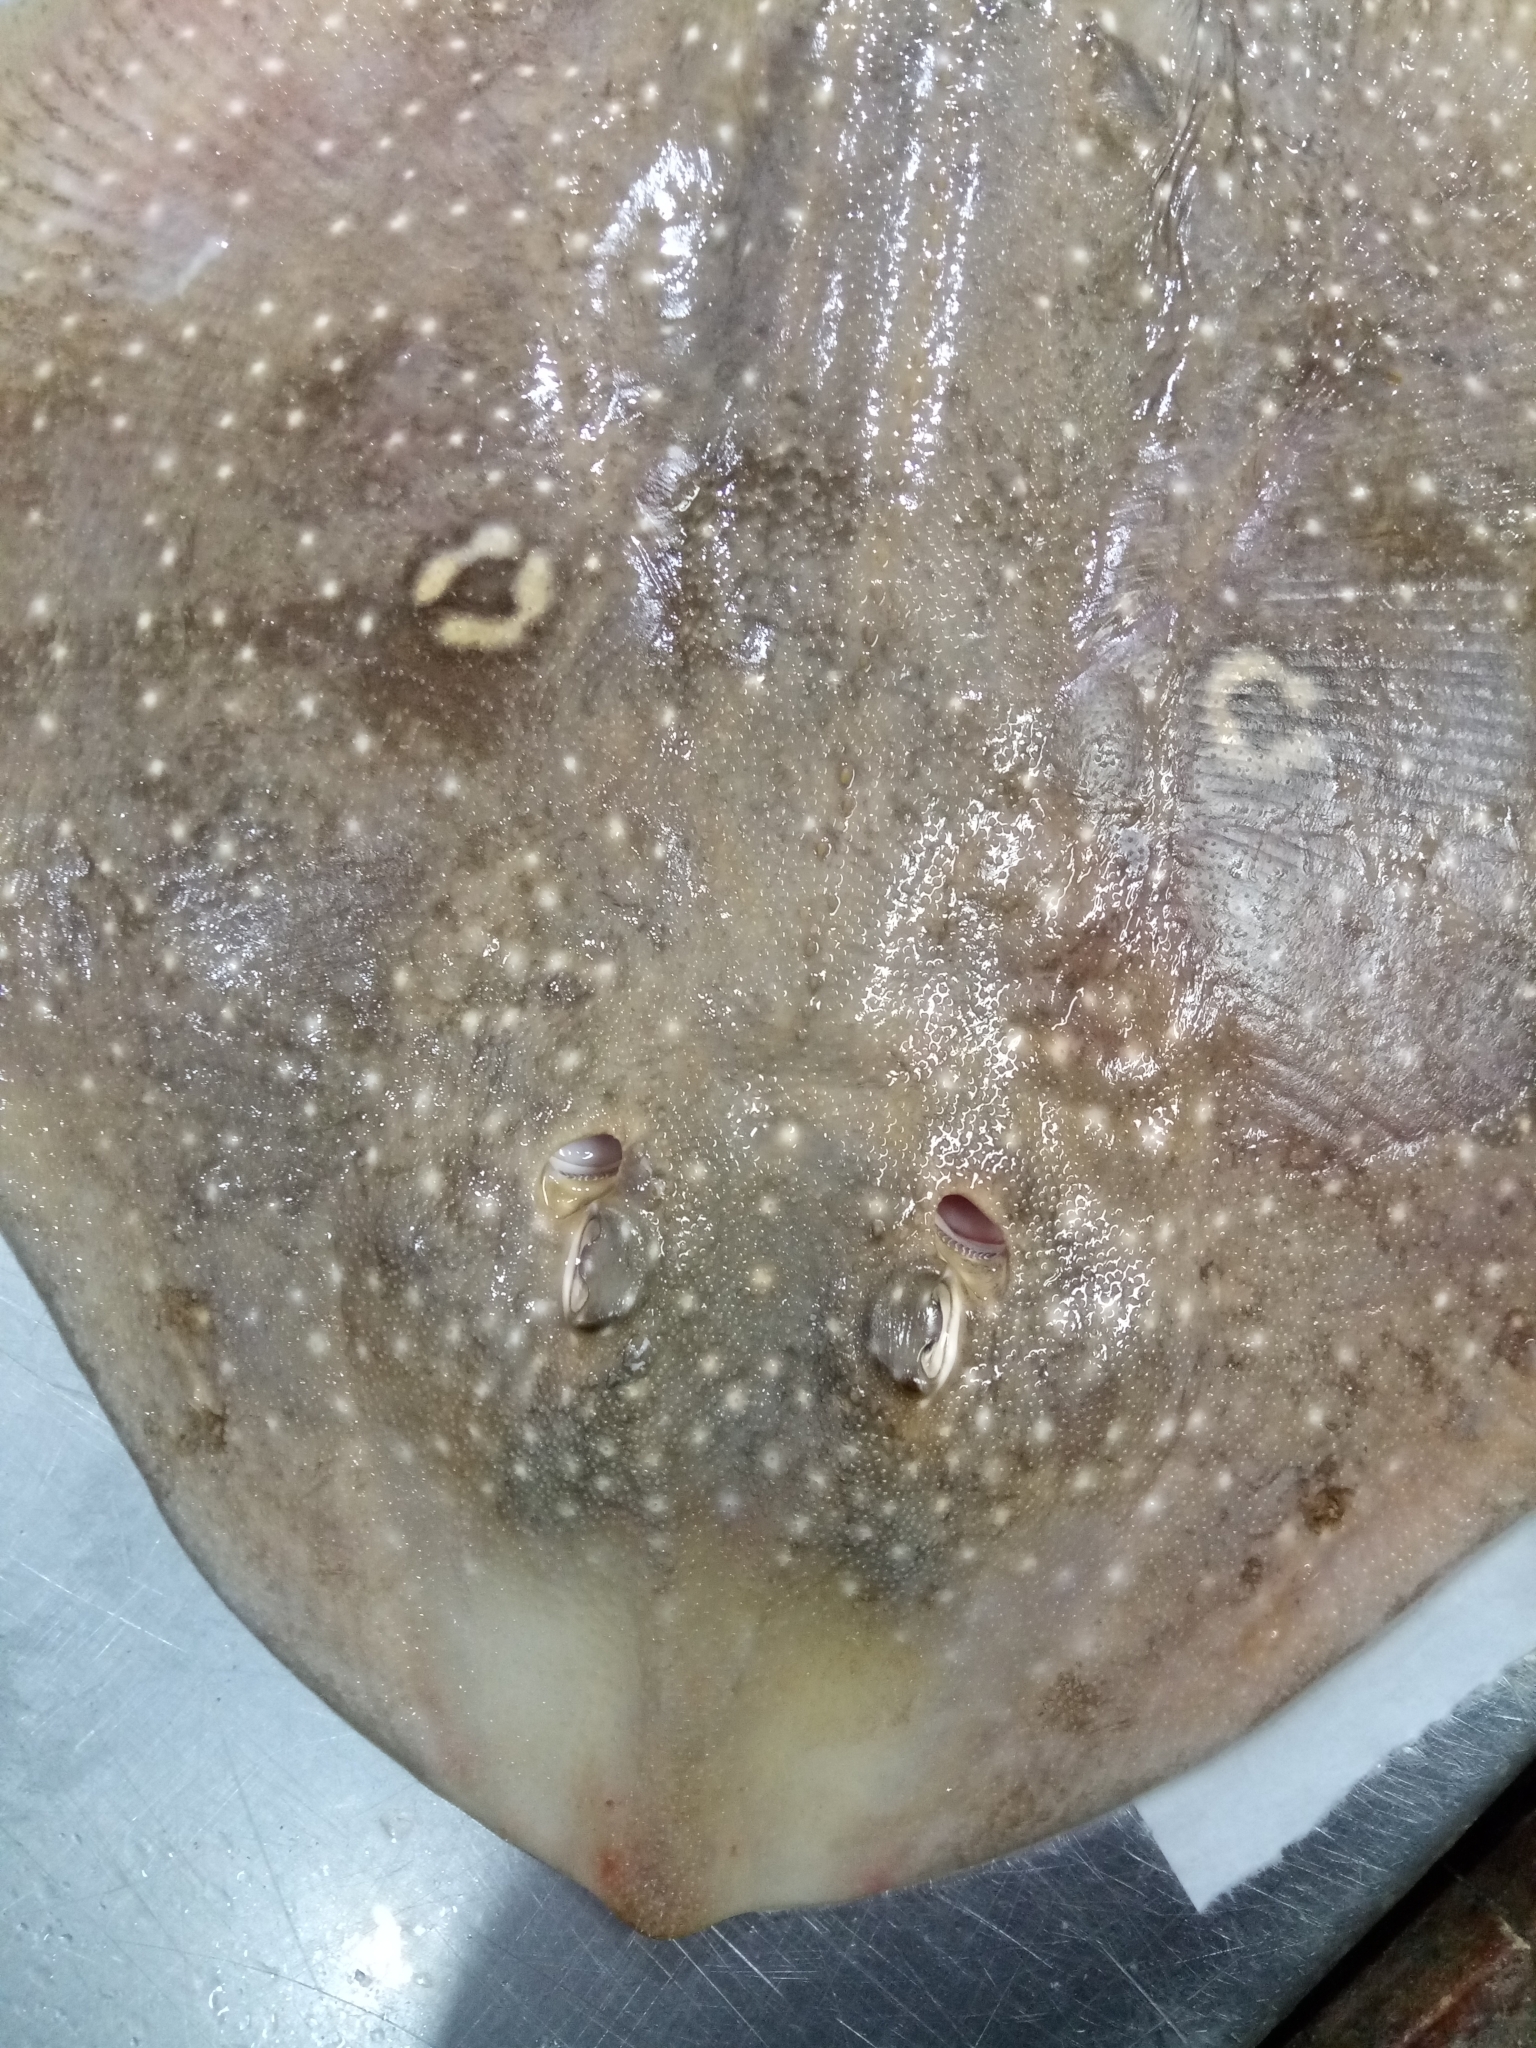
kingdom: Animalia
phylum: Chordata
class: Elasmobranchii
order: Rajiformes
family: Rajidae
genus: Raja
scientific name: Raja radula
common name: Rough ray
